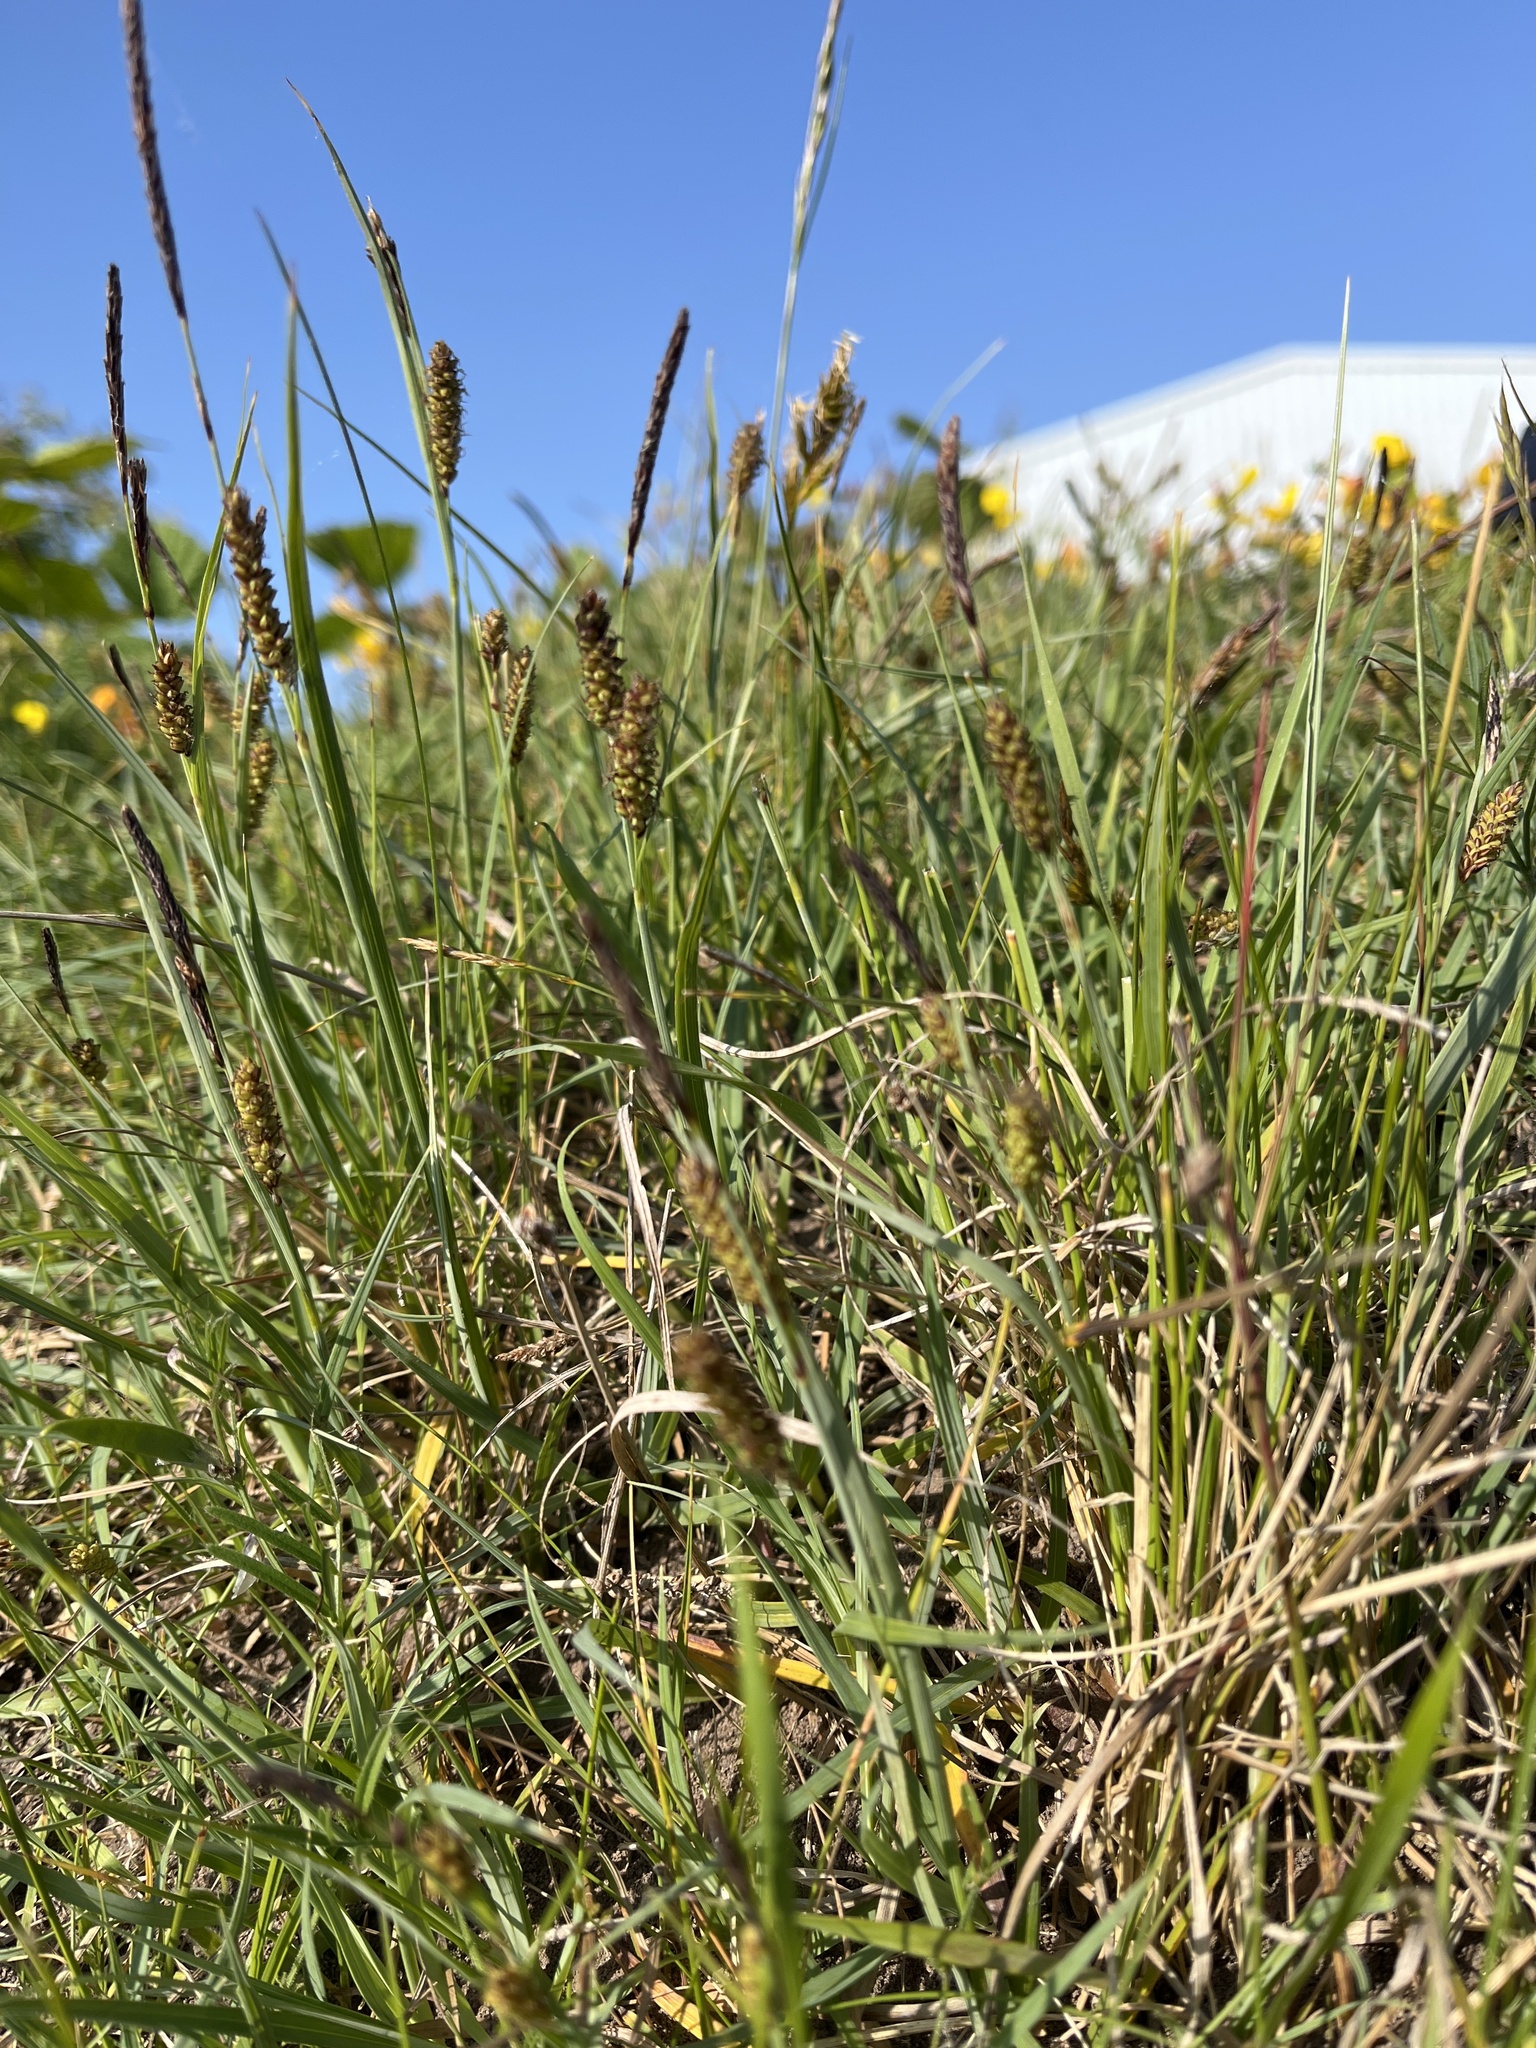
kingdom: Plantae
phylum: Tracheophyta
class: Liliopsida
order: Poales
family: Cyperaceae
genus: Carex
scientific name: Carex flacca
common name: Glaucous sedge
